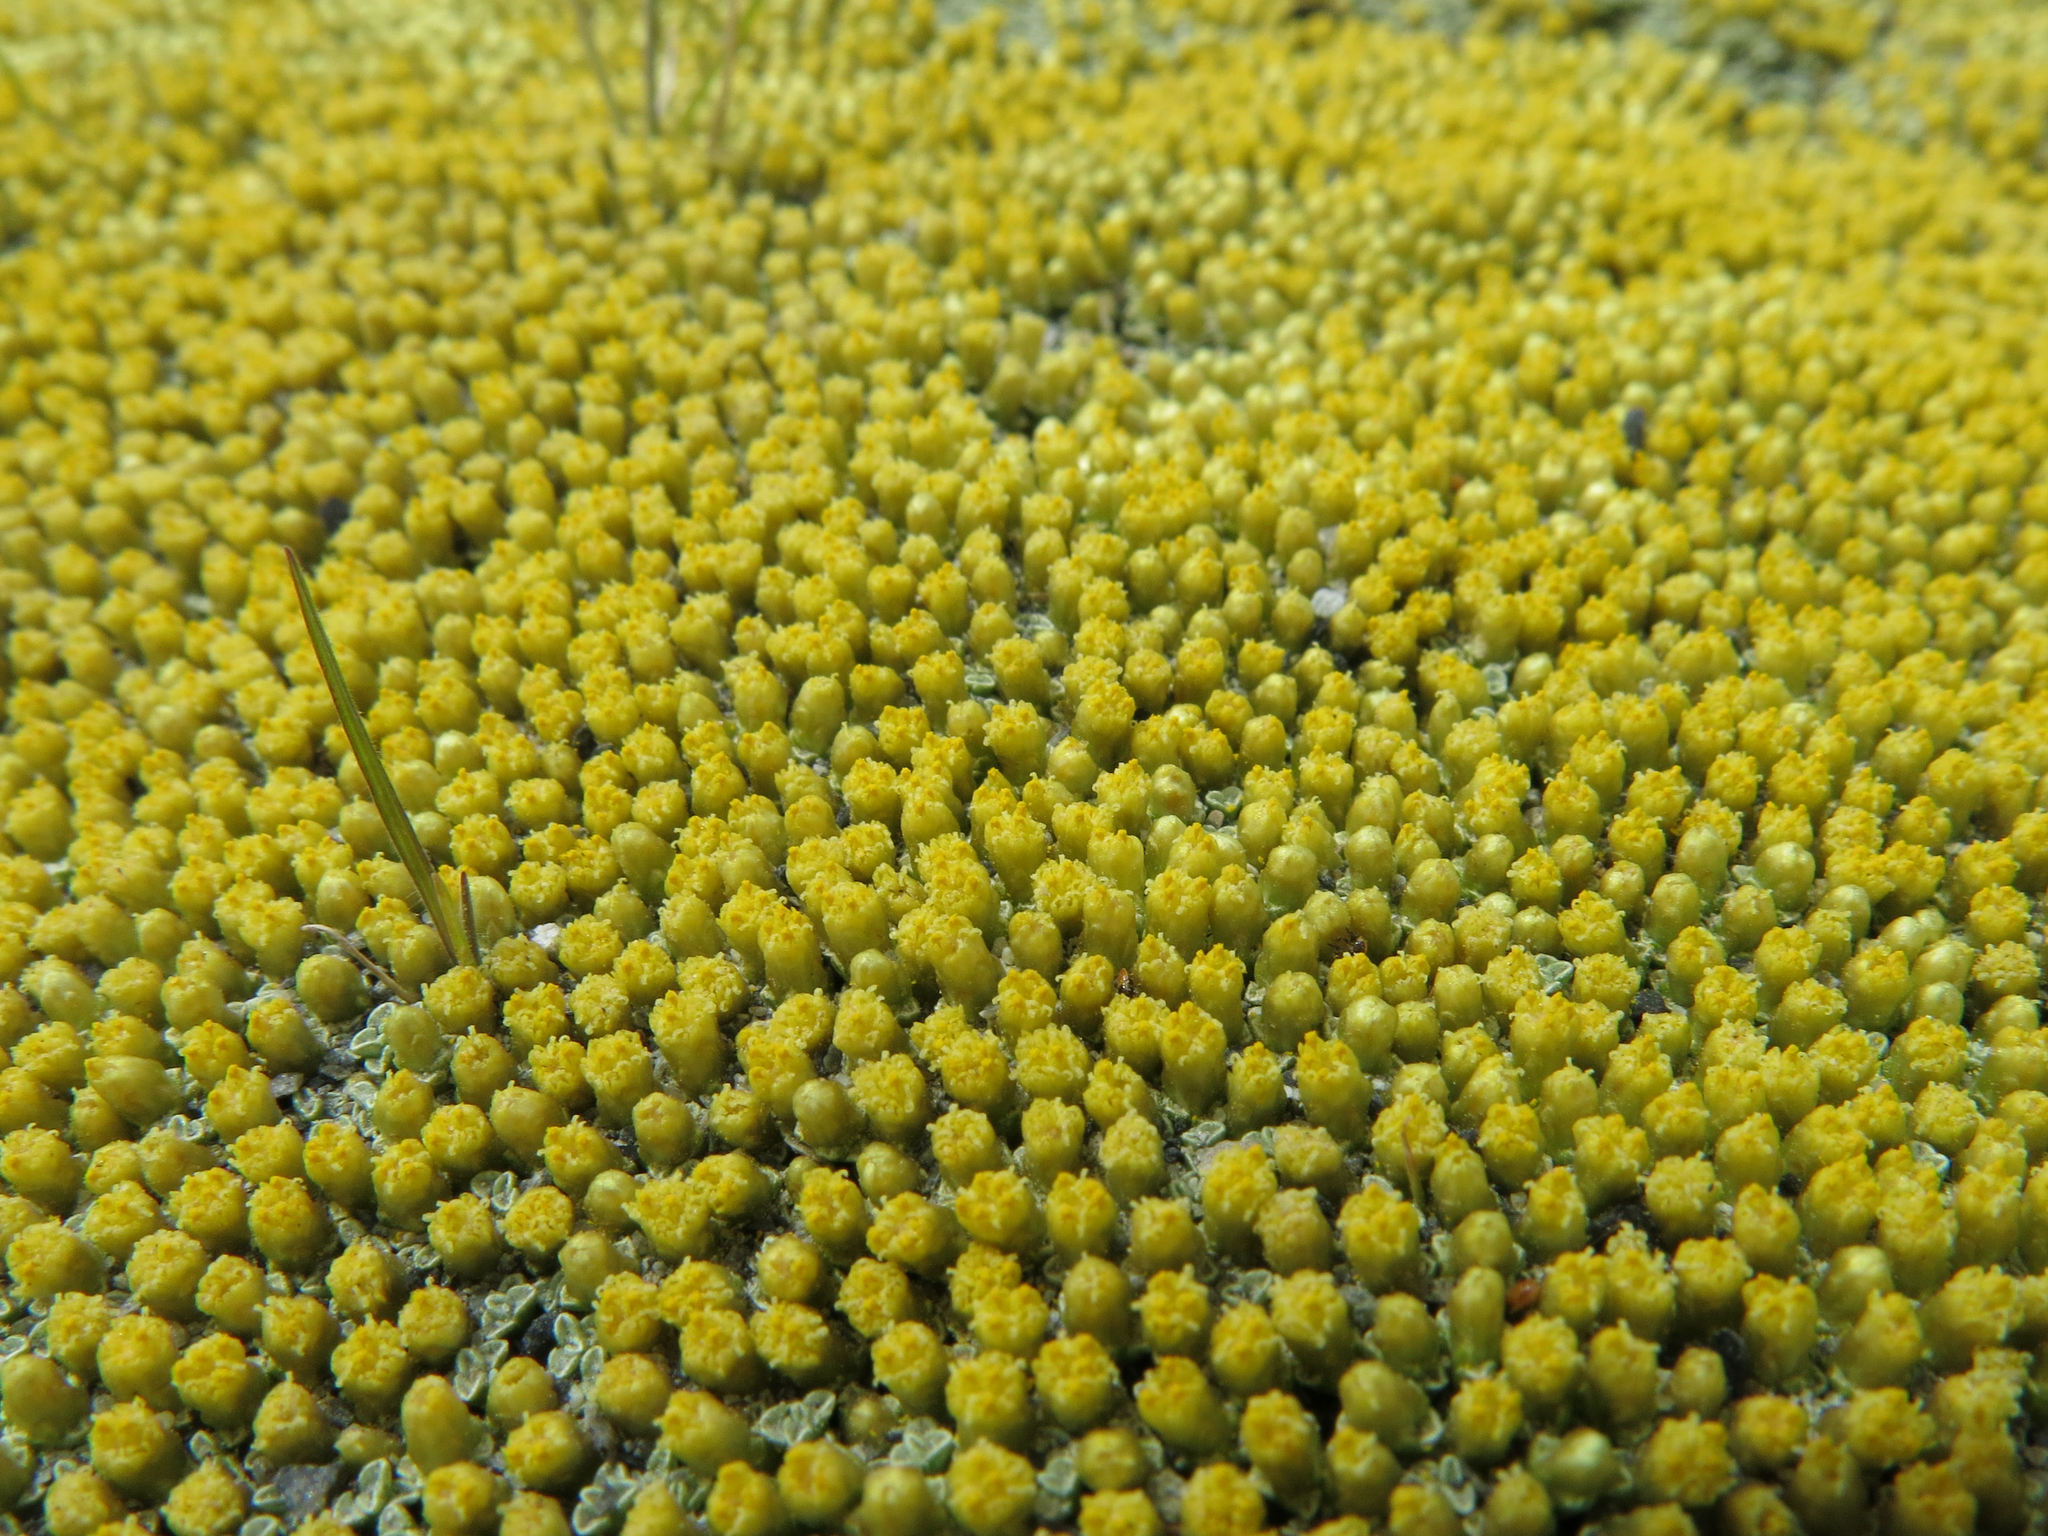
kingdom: Plantae
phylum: Tracheophyta
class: Magnoliopsida
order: Asterales
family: Asteraceae
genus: Raoulia
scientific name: Raoulia australis
